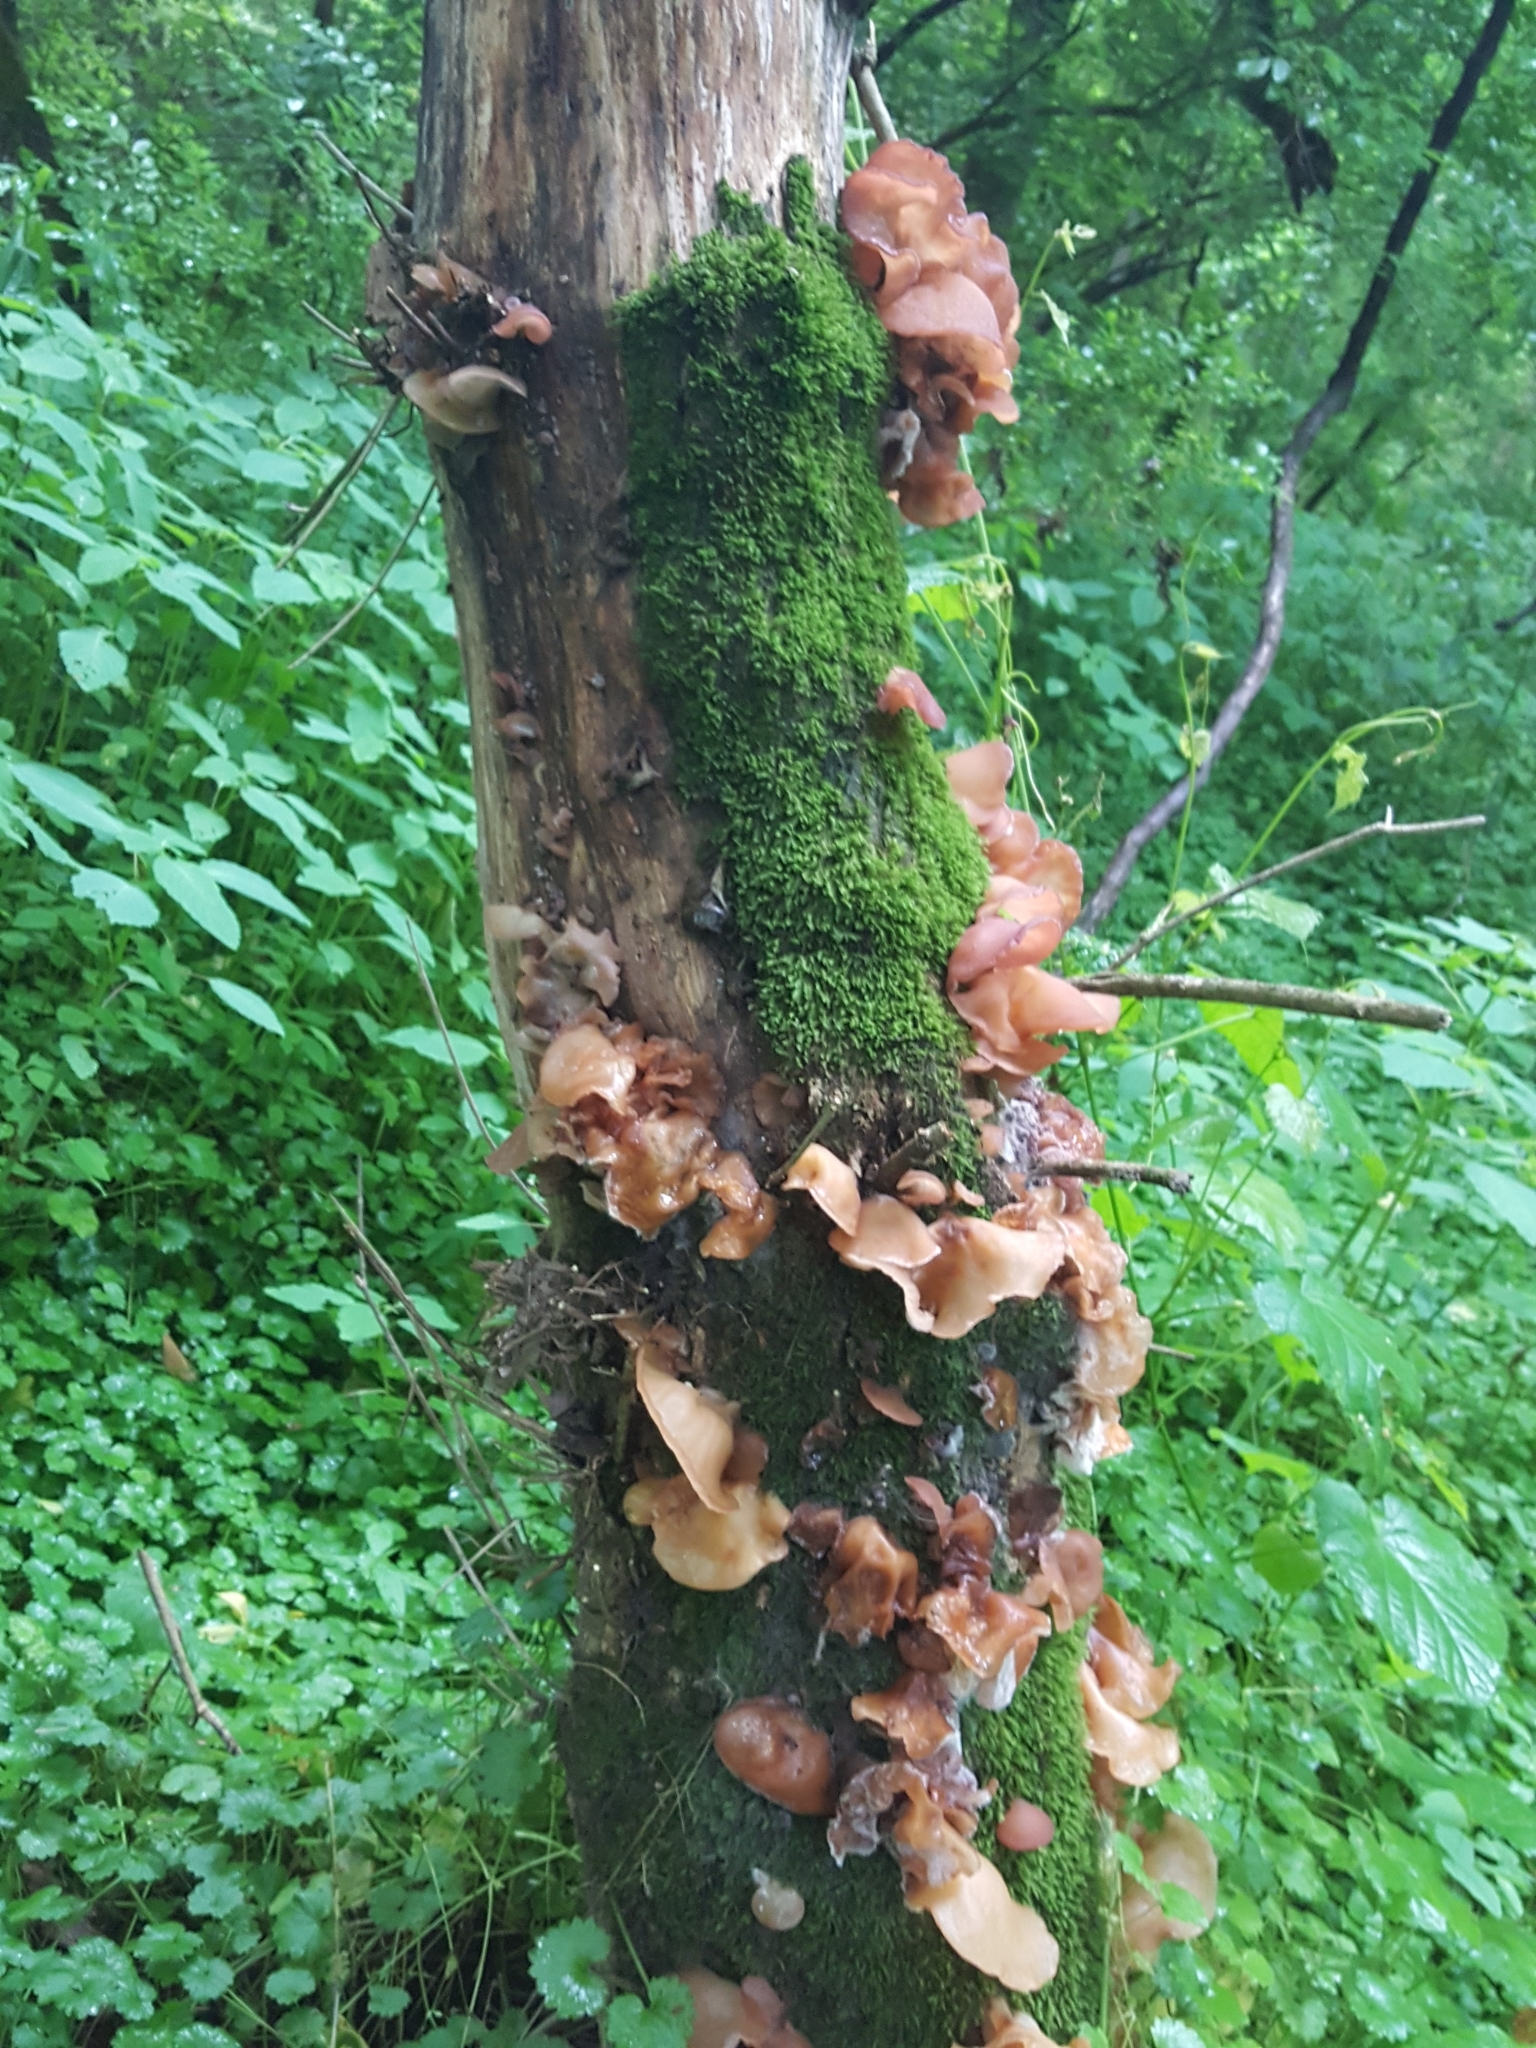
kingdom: Fungi
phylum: Basidiomycota
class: Agaricomycetes
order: Auriculariales
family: Auriculariaceae
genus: Auricularia
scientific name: Auricularia
